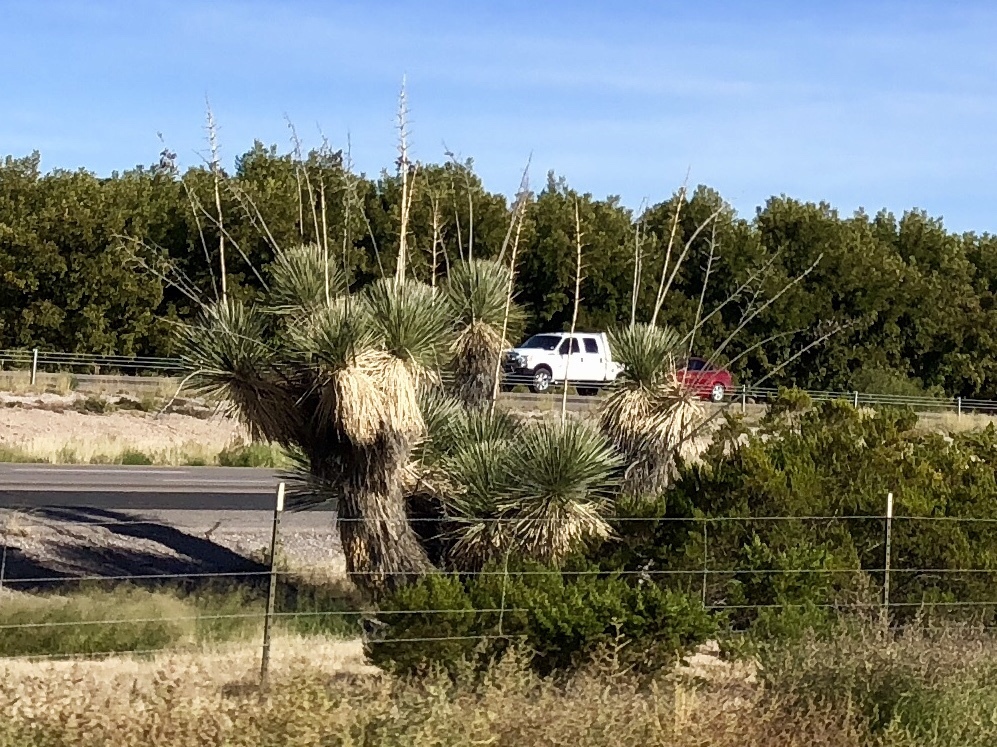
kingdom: Plantae
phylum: Tracheophyta
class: Liliopsida
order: Asparagales
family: Asparagaceae
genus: Yucca
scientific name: Yucca elata
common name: Palmella
